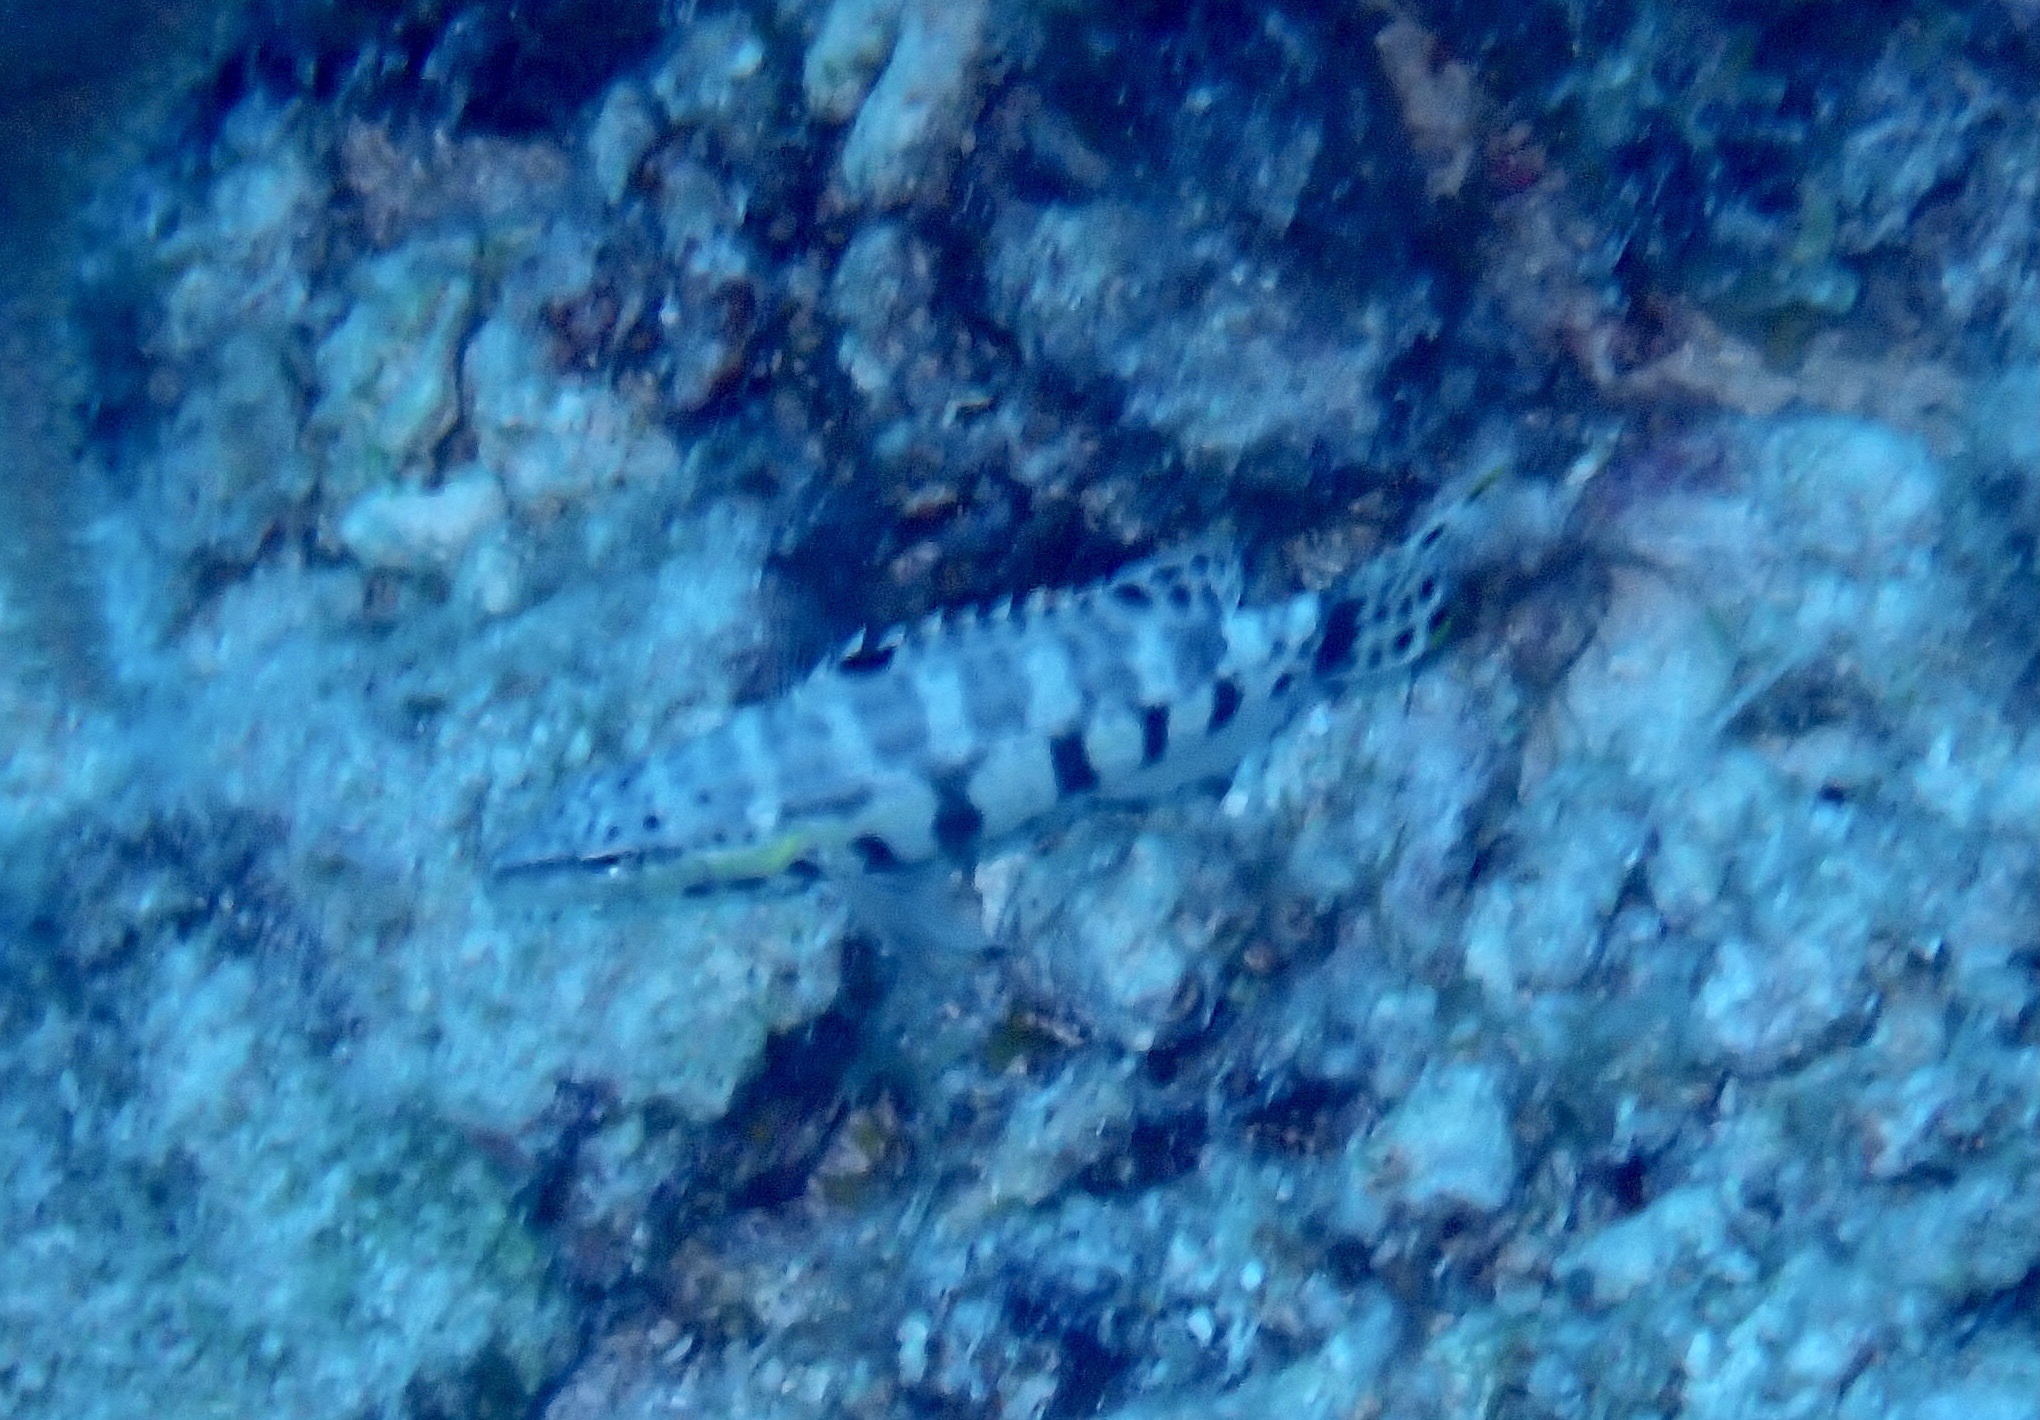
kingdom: Animalia
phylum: Chordata
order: Perciformes
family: Serranidae
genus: Serranus
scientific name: Serranus tigrinus
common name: Harlequin bass
